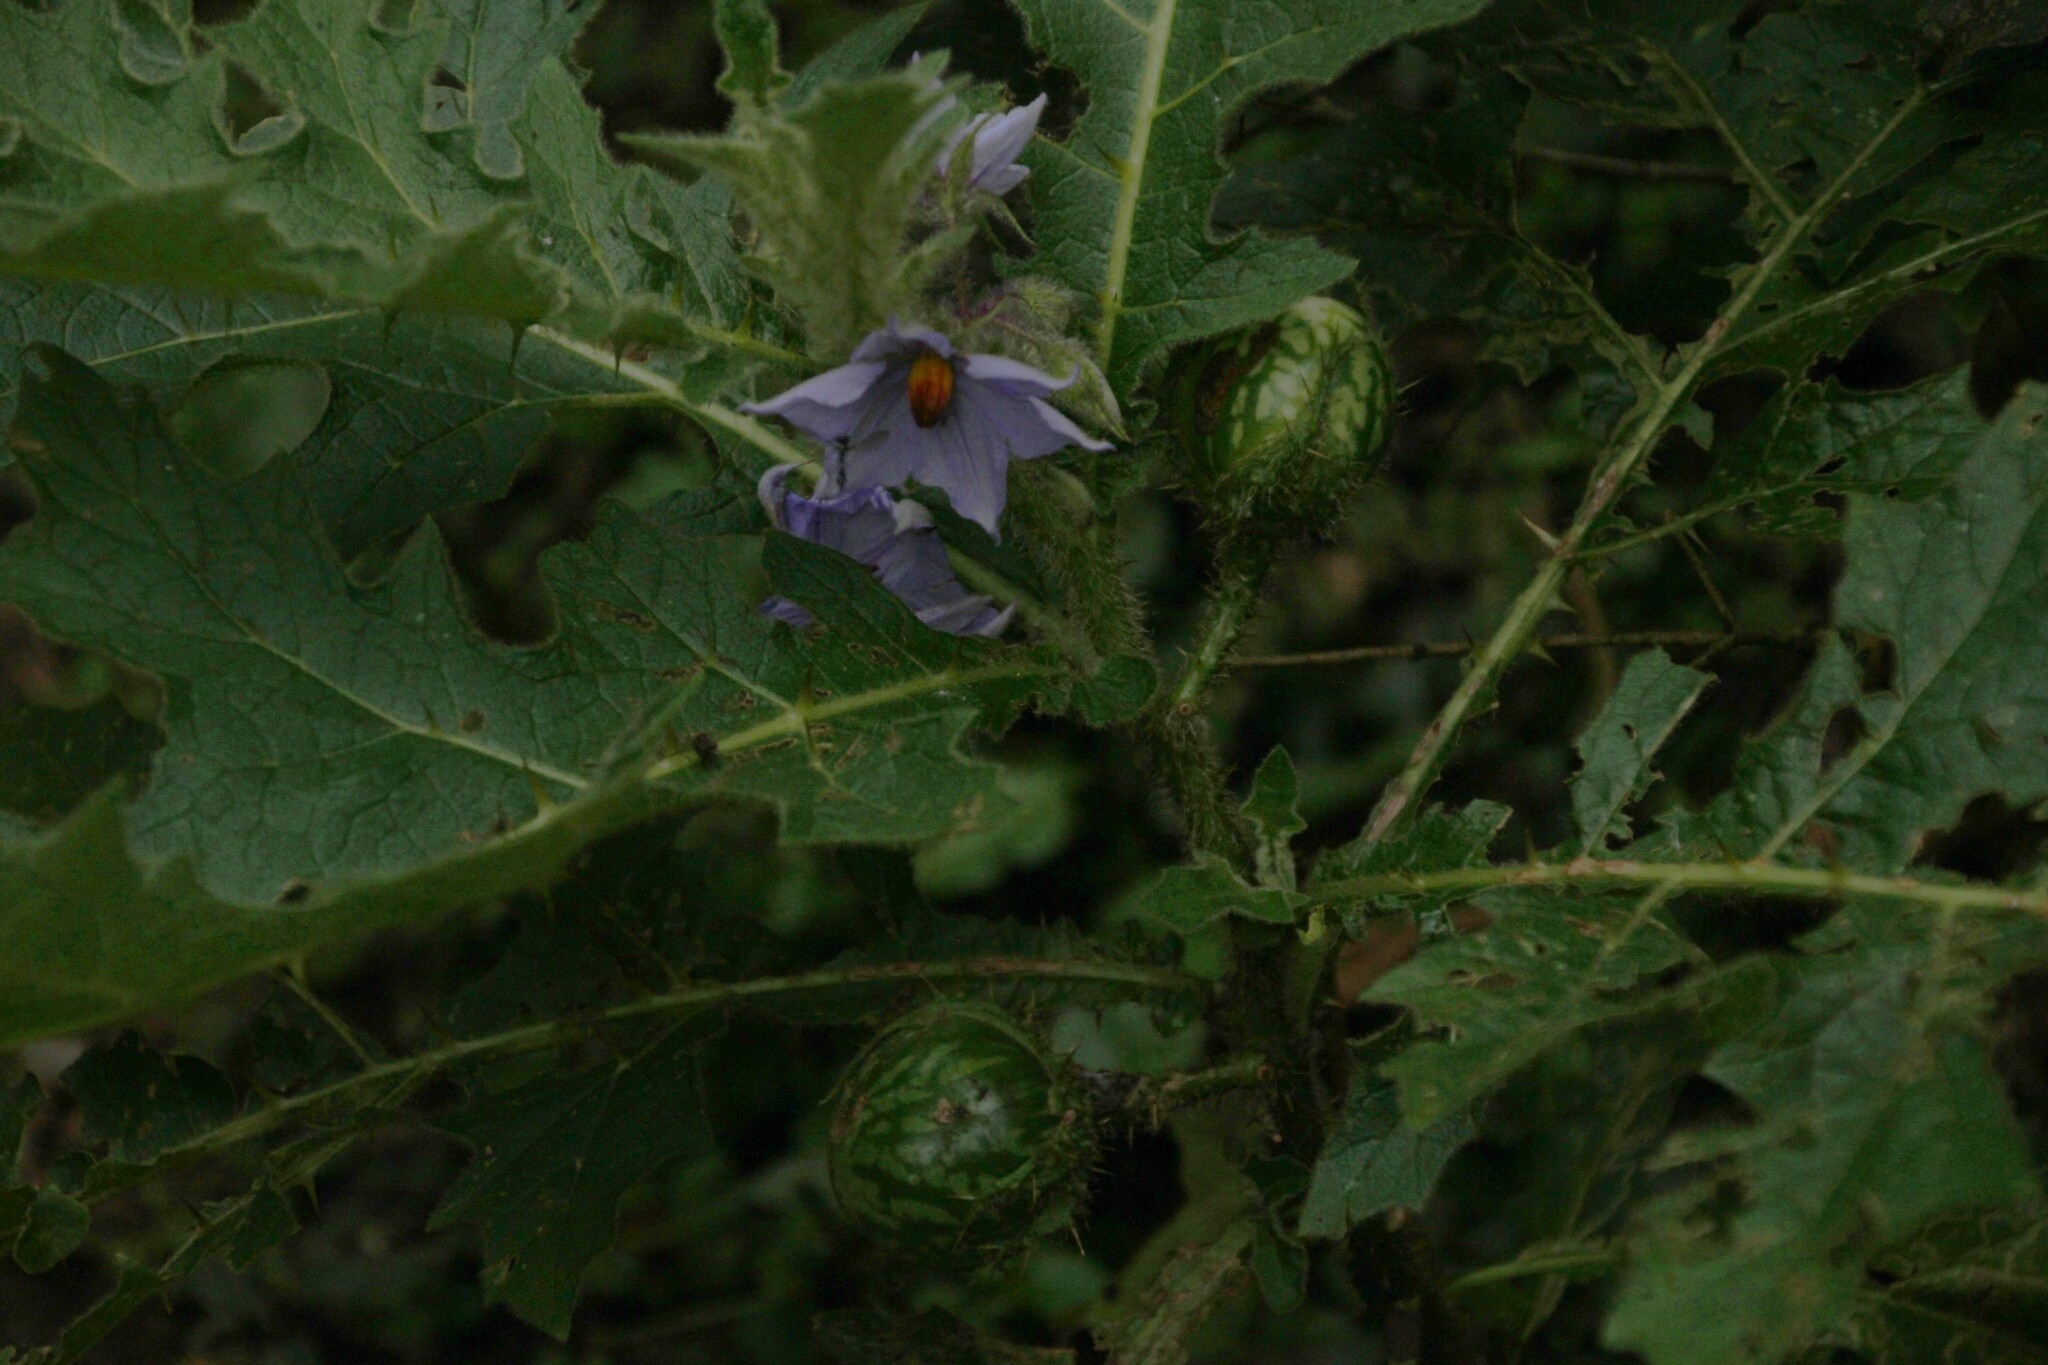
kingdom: Plantae
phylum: Tracheophyta
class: Magnoliopsida
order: Solanales
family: Solanaceae
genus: Solanum
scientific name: Solanum dasyphyllum
